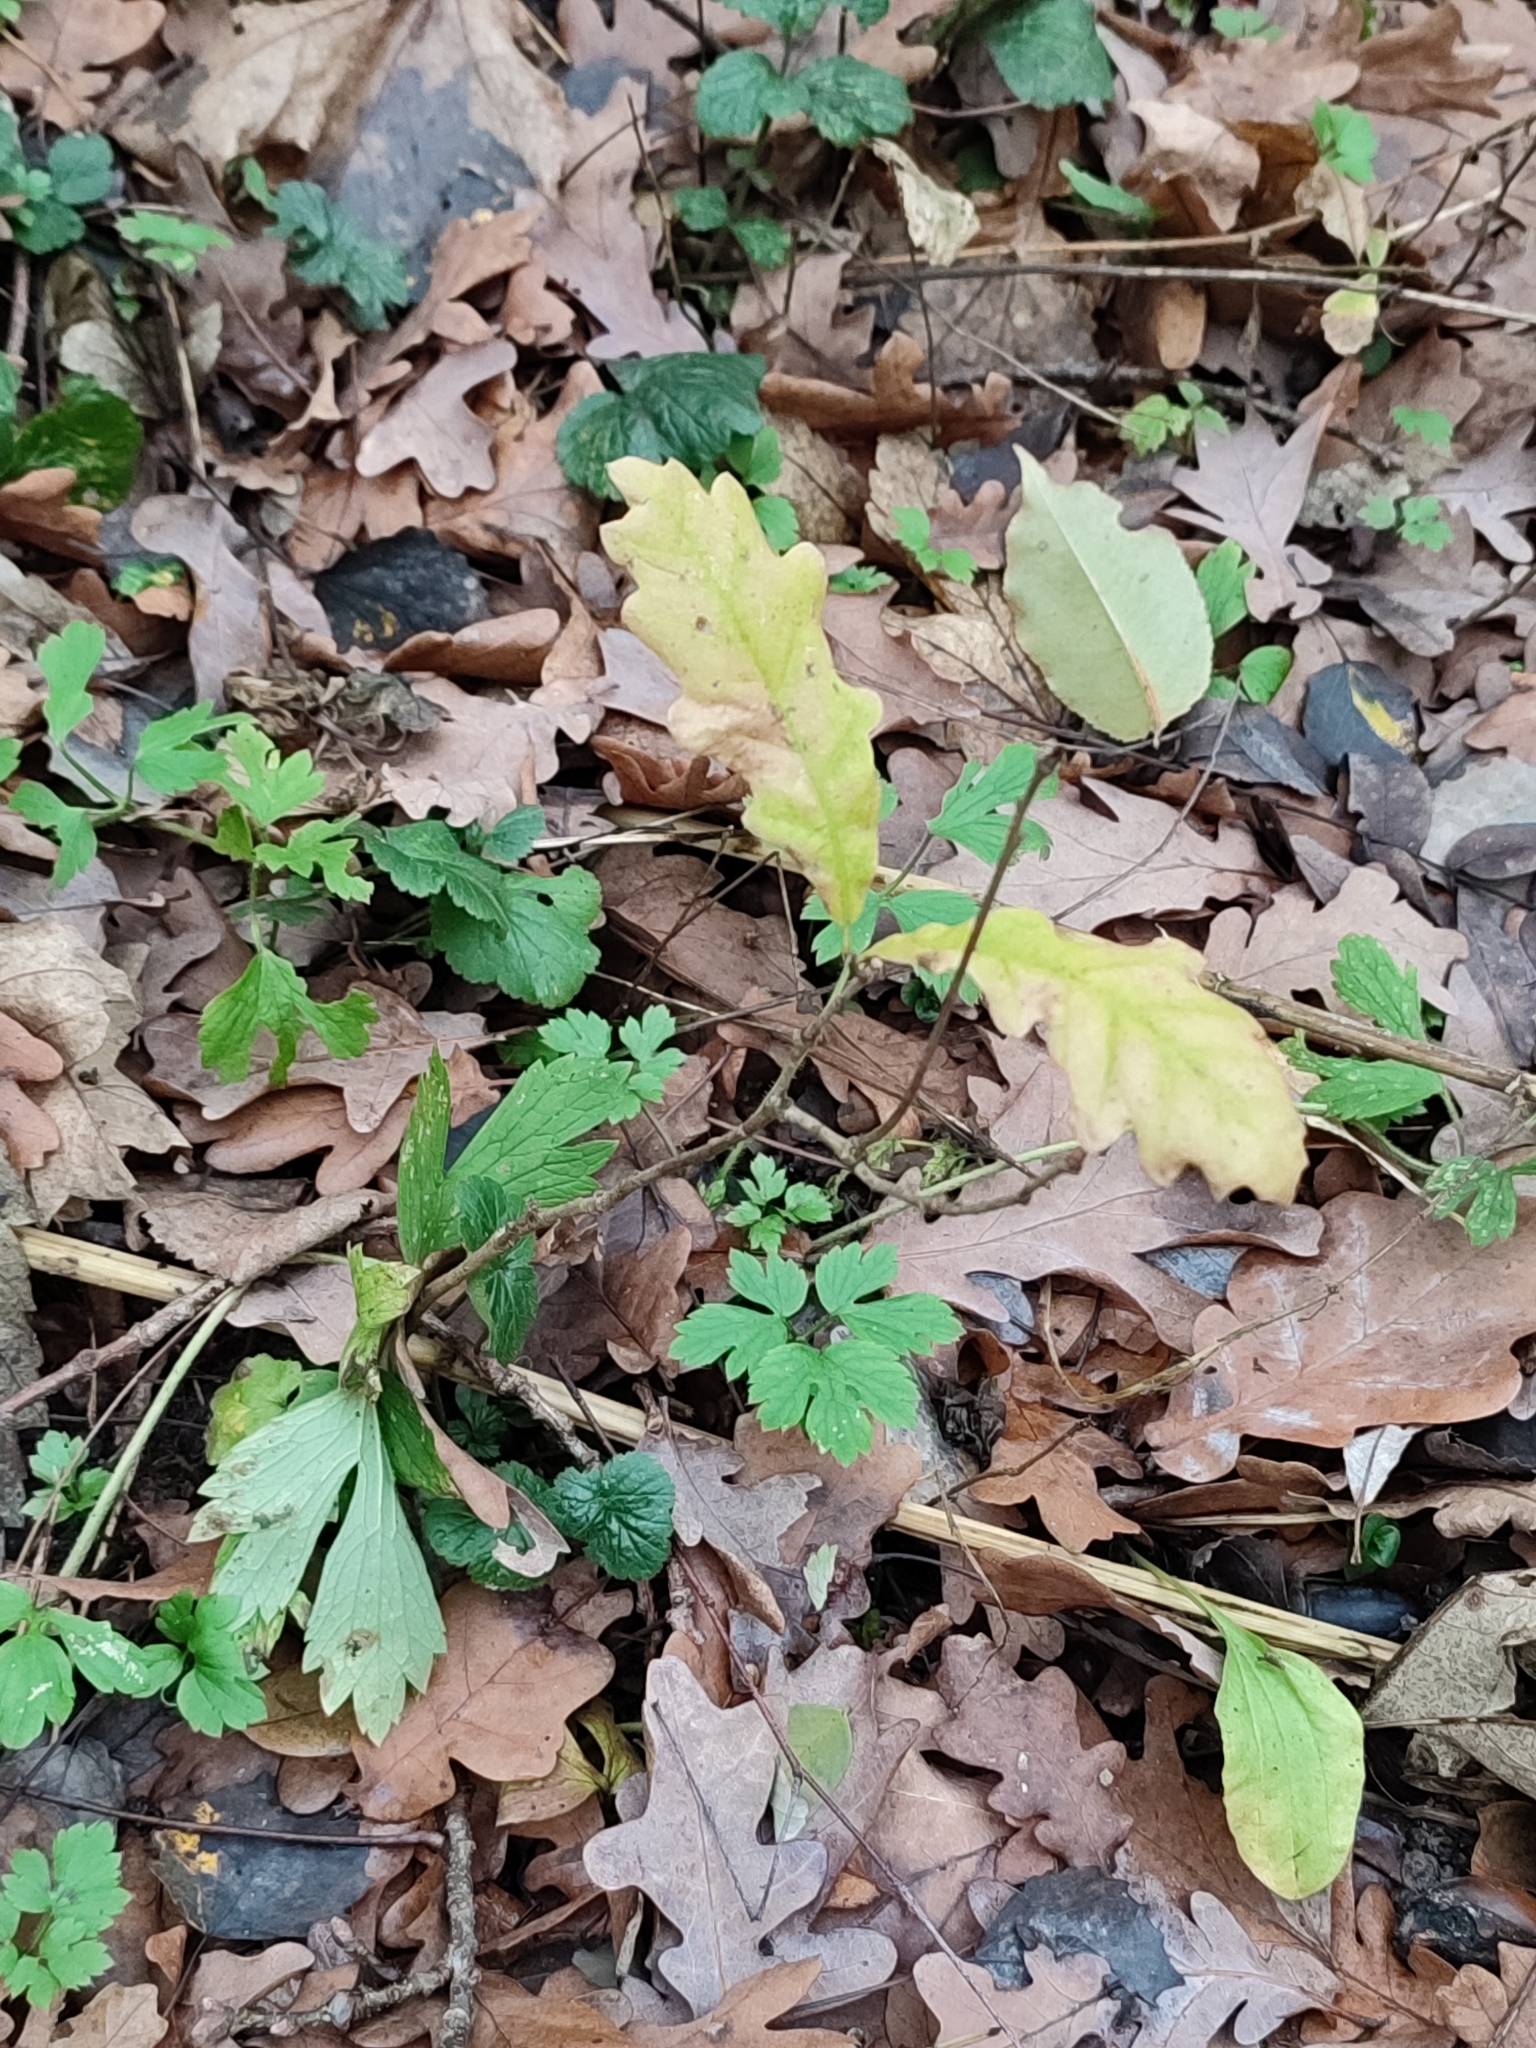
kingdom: Plantae
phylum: Tracheophyta
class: Magnoliopsida
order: Fagales
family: Fagaceae
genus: Quercus
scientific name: Quercus robur
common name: Pedunculate oak
